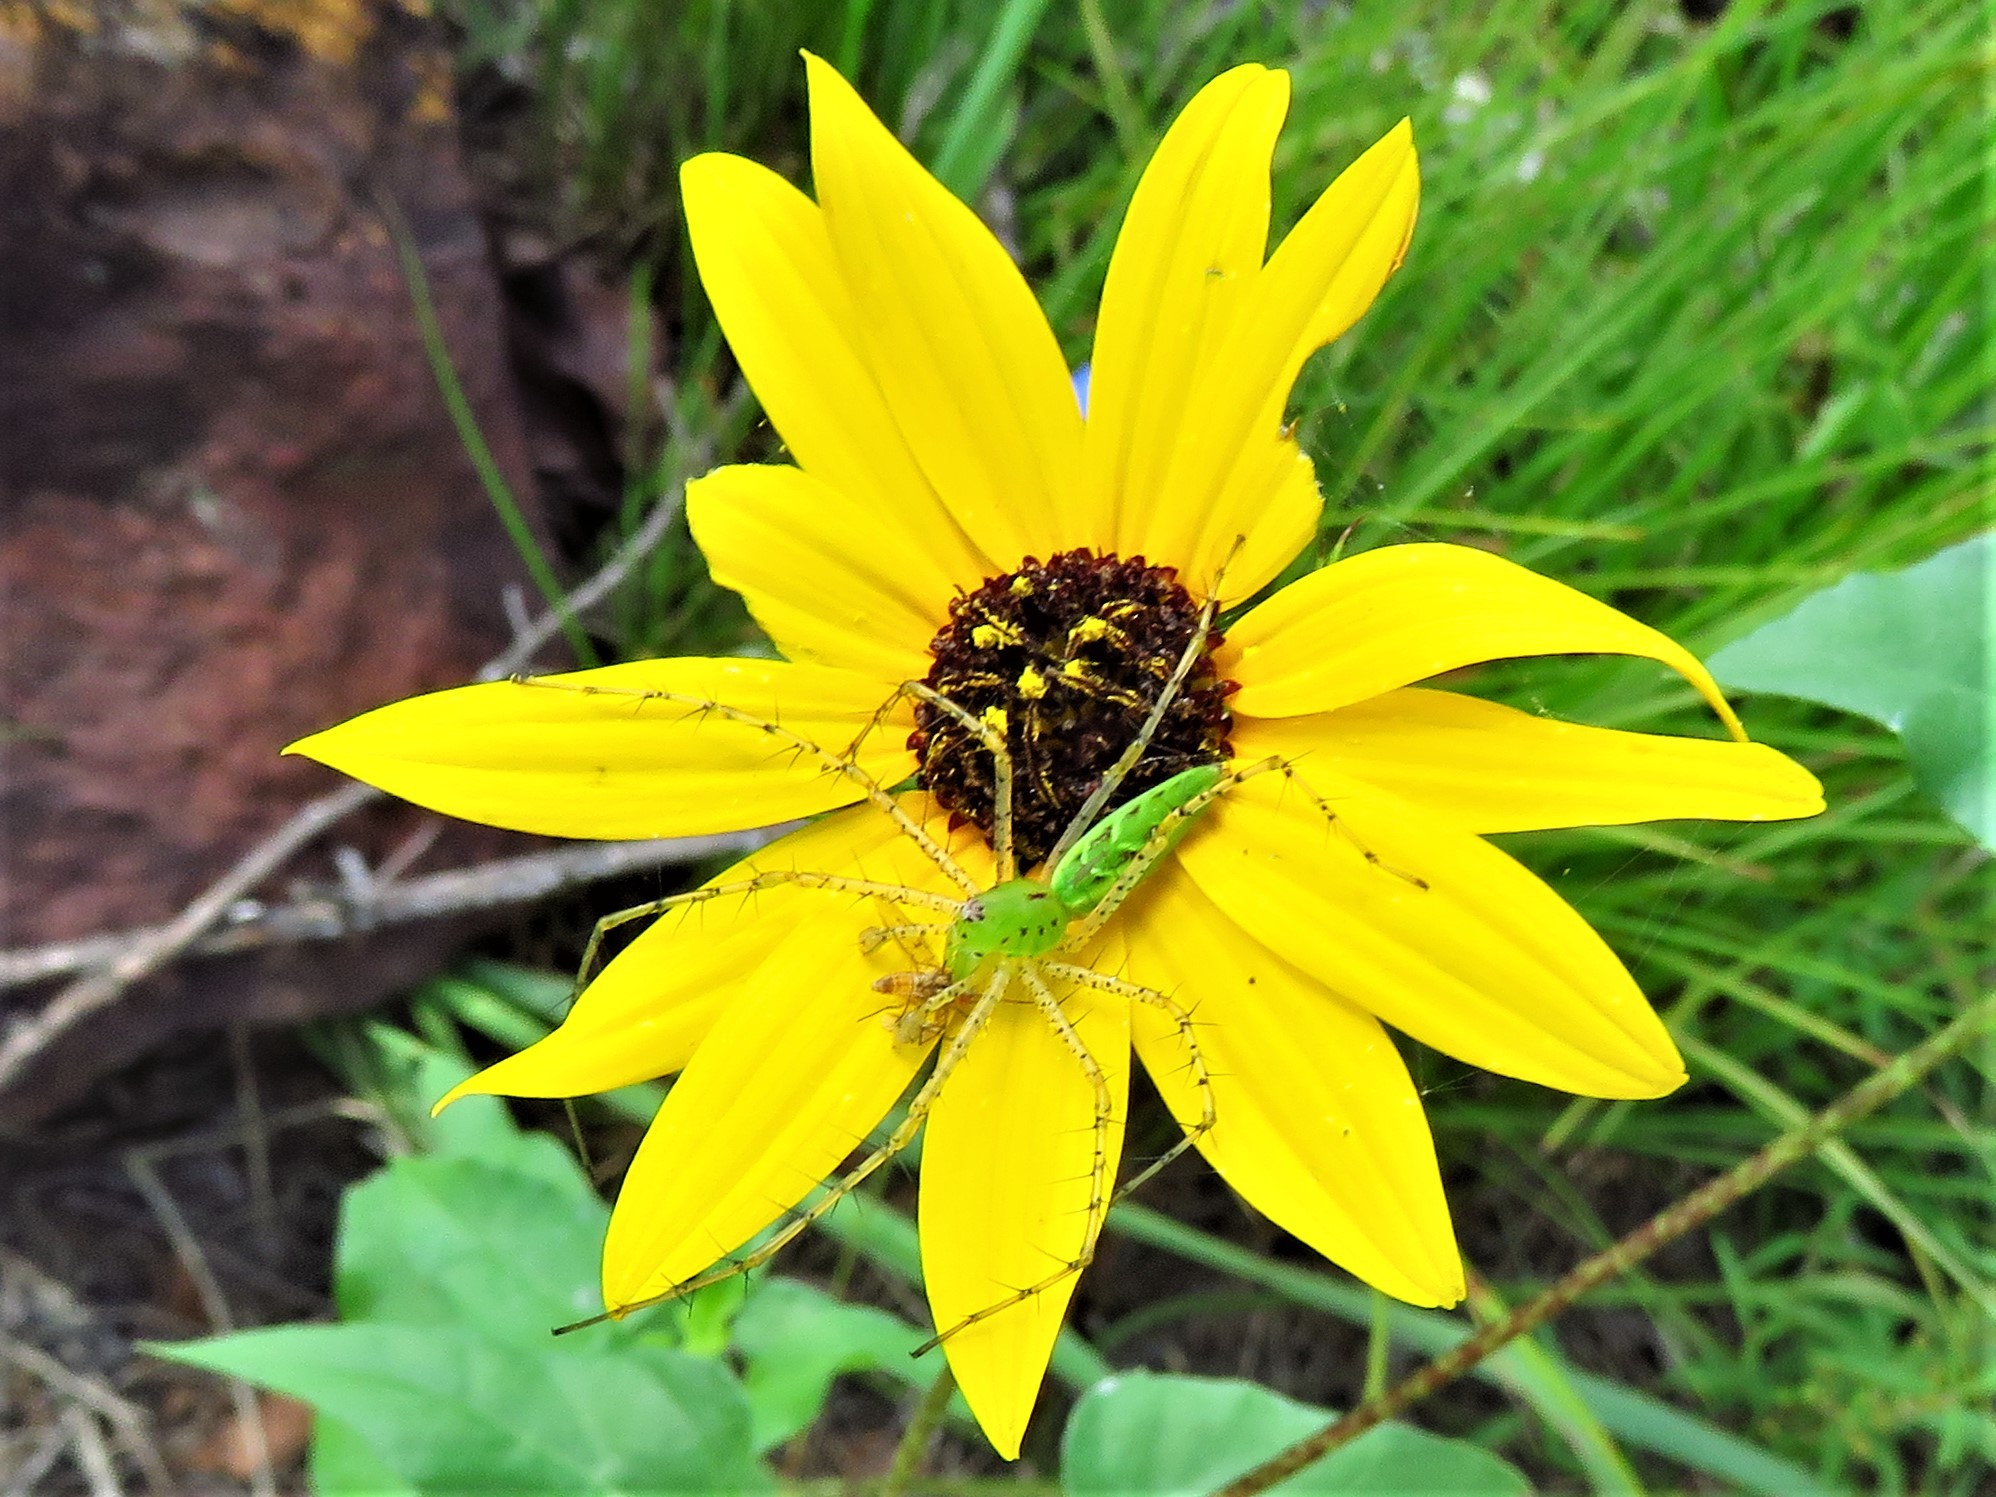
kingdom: Animalia
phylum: Arthropoda
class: Arachnida
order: Araneae
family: Oxyopidae
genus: Peucetia
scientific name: Peucetia viridans
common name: Lynx spiders
